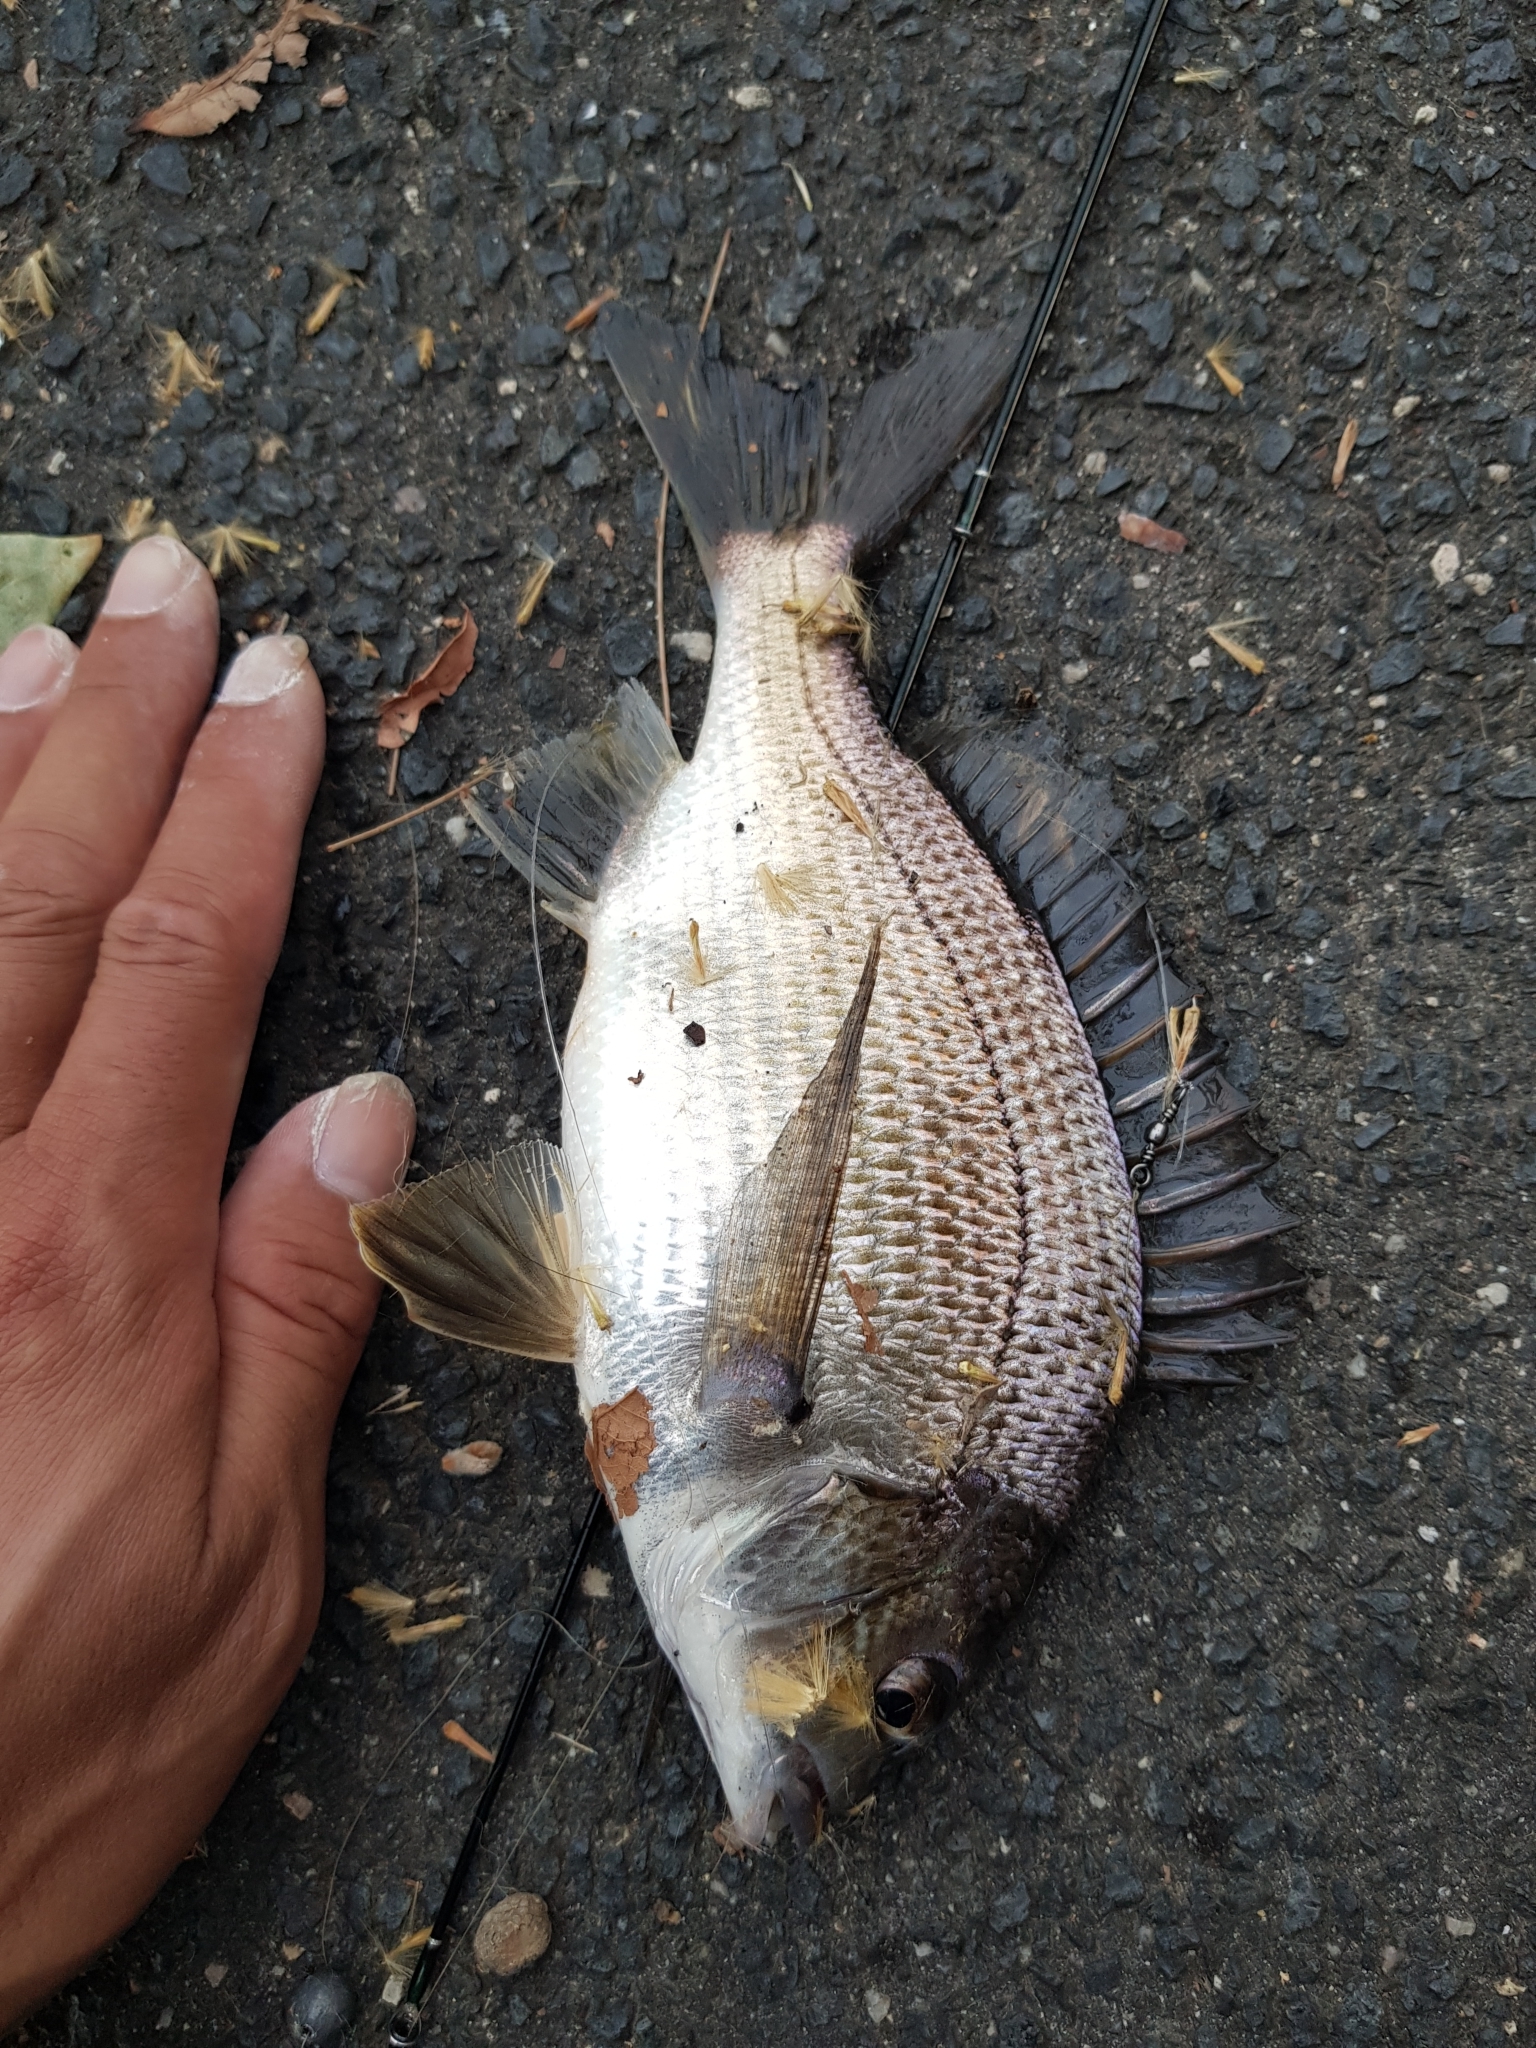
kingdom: Animalia
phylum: Chordata
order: Perciformes
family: Sparidae
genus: Acanthopagrus
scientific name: Acanthopagrus butcheri
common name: Black bream
